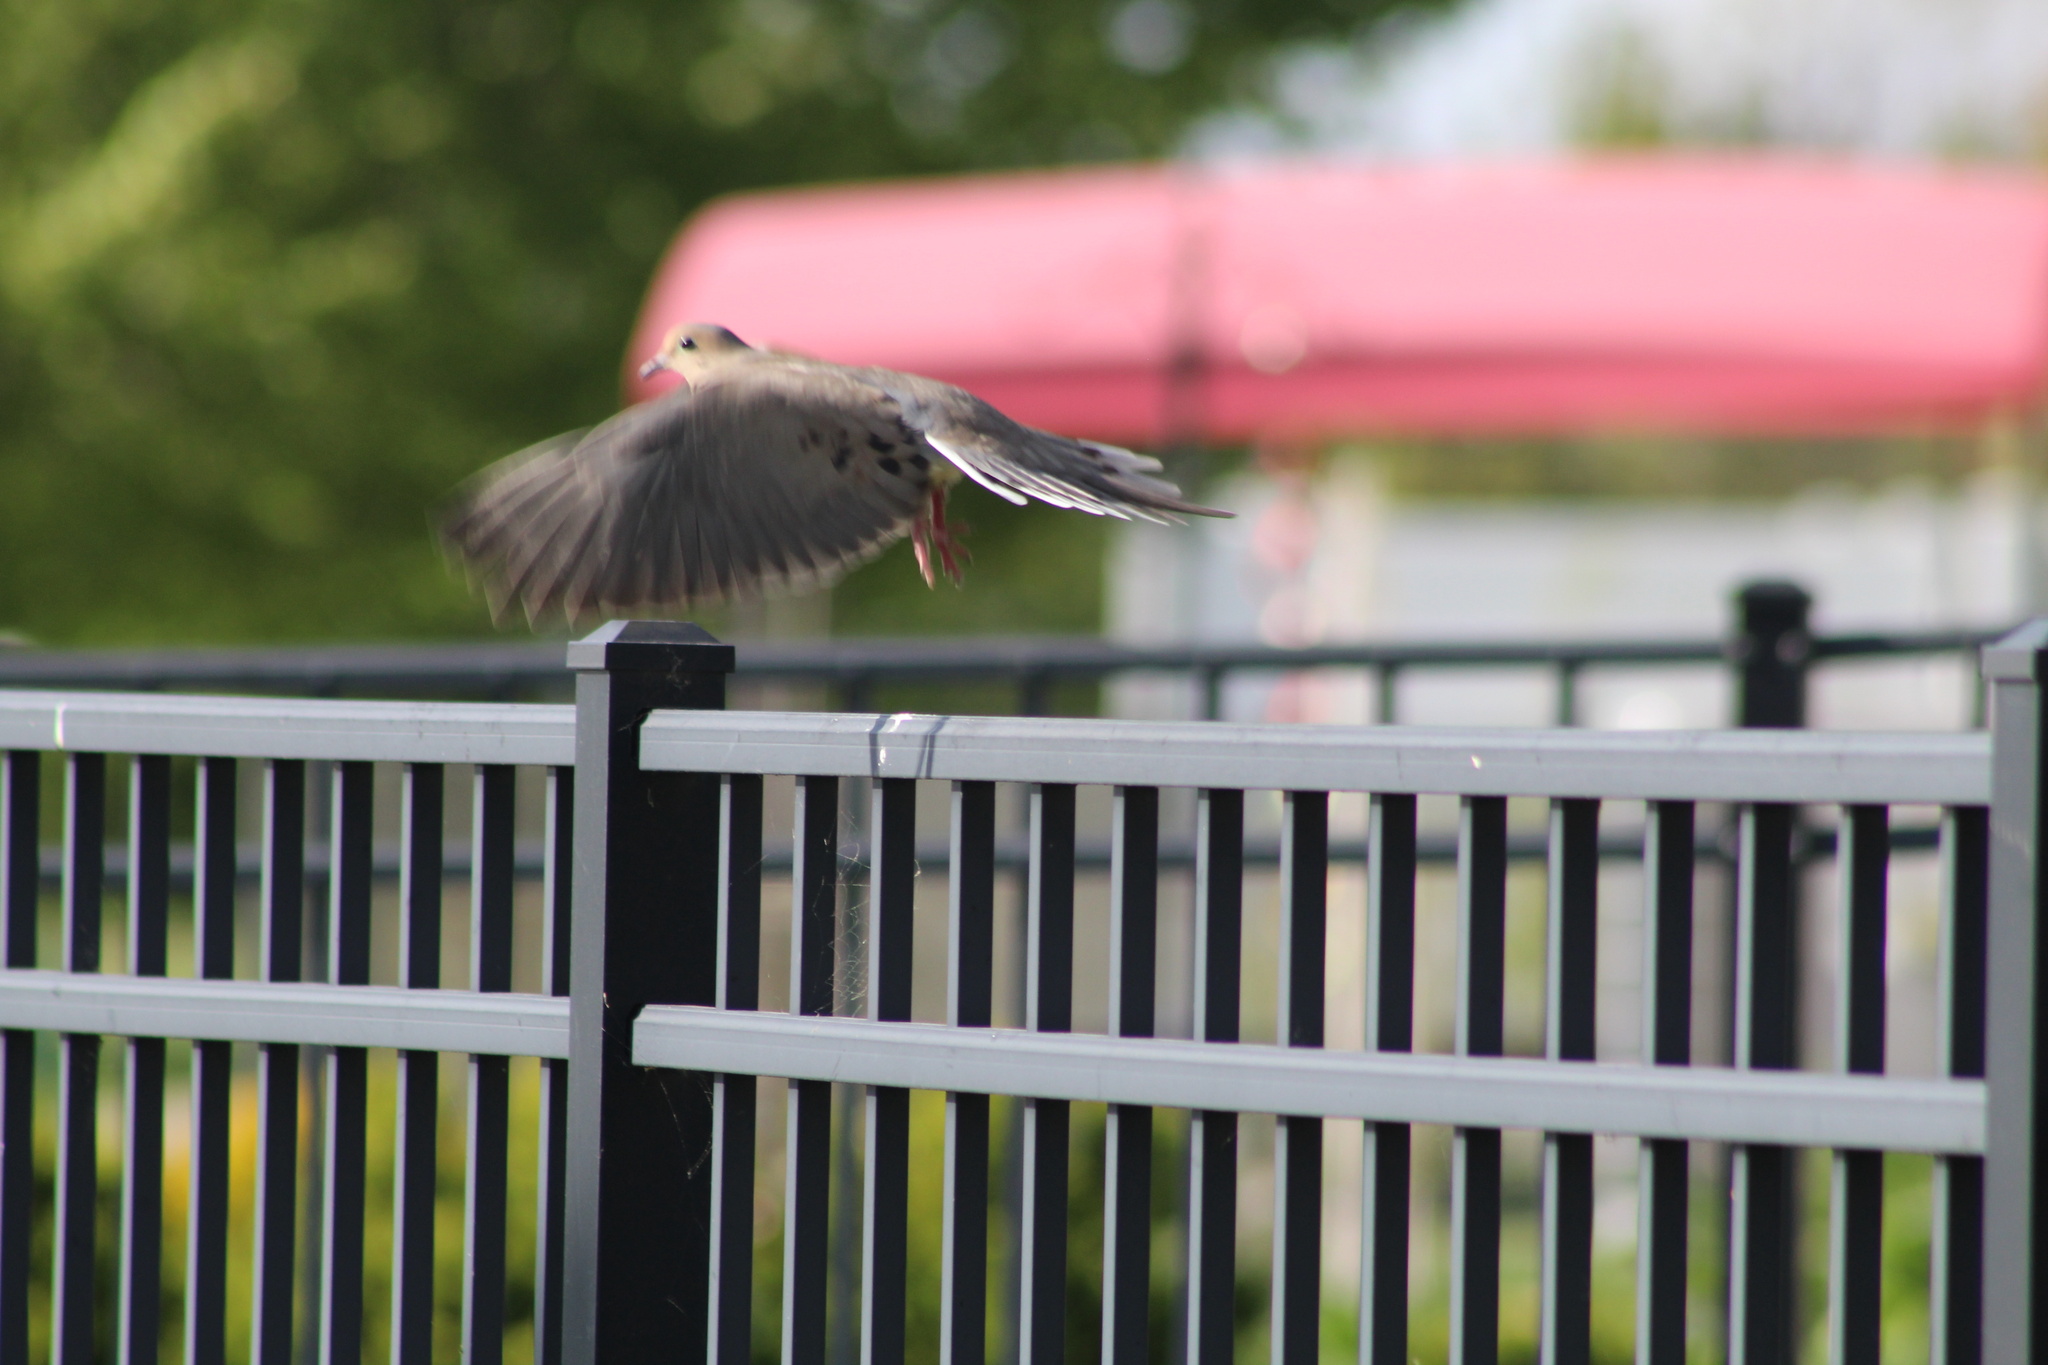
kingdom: Animalia
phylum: Chordata
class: Aves
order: Columbiformes
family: Columbidae
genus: Zenaida
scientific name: Zenaida macroura
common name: Mourning dove
